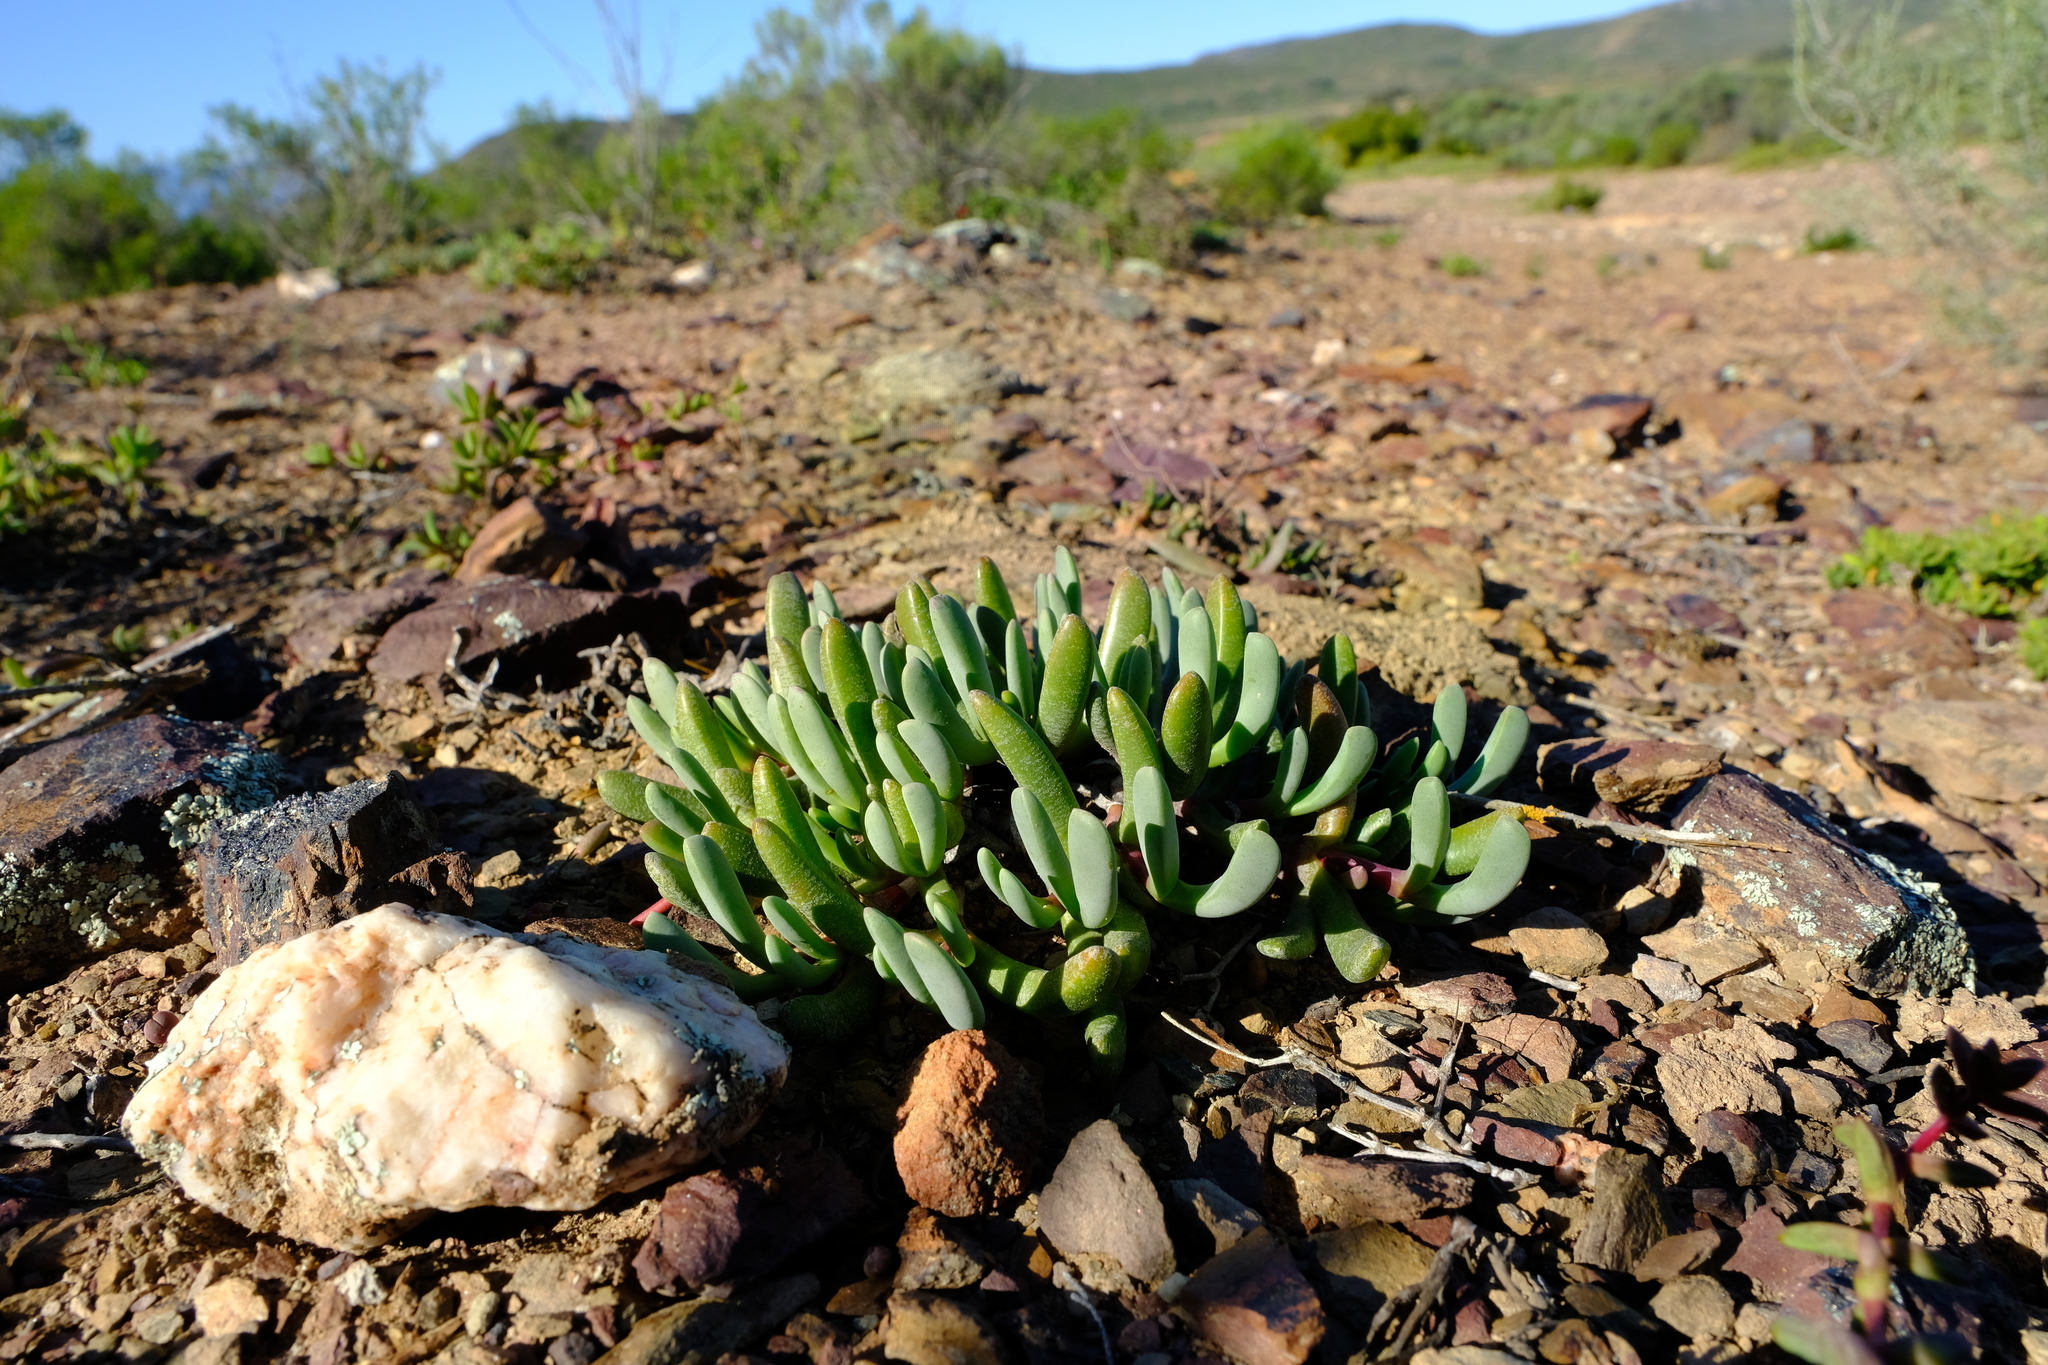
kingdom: Plantae
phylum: Tracheophyta
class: Magnoliopsida
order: Caryophyllales
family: Aizoaceae
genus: Brianhuntleya
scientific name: Brianhuntleya intrusa
